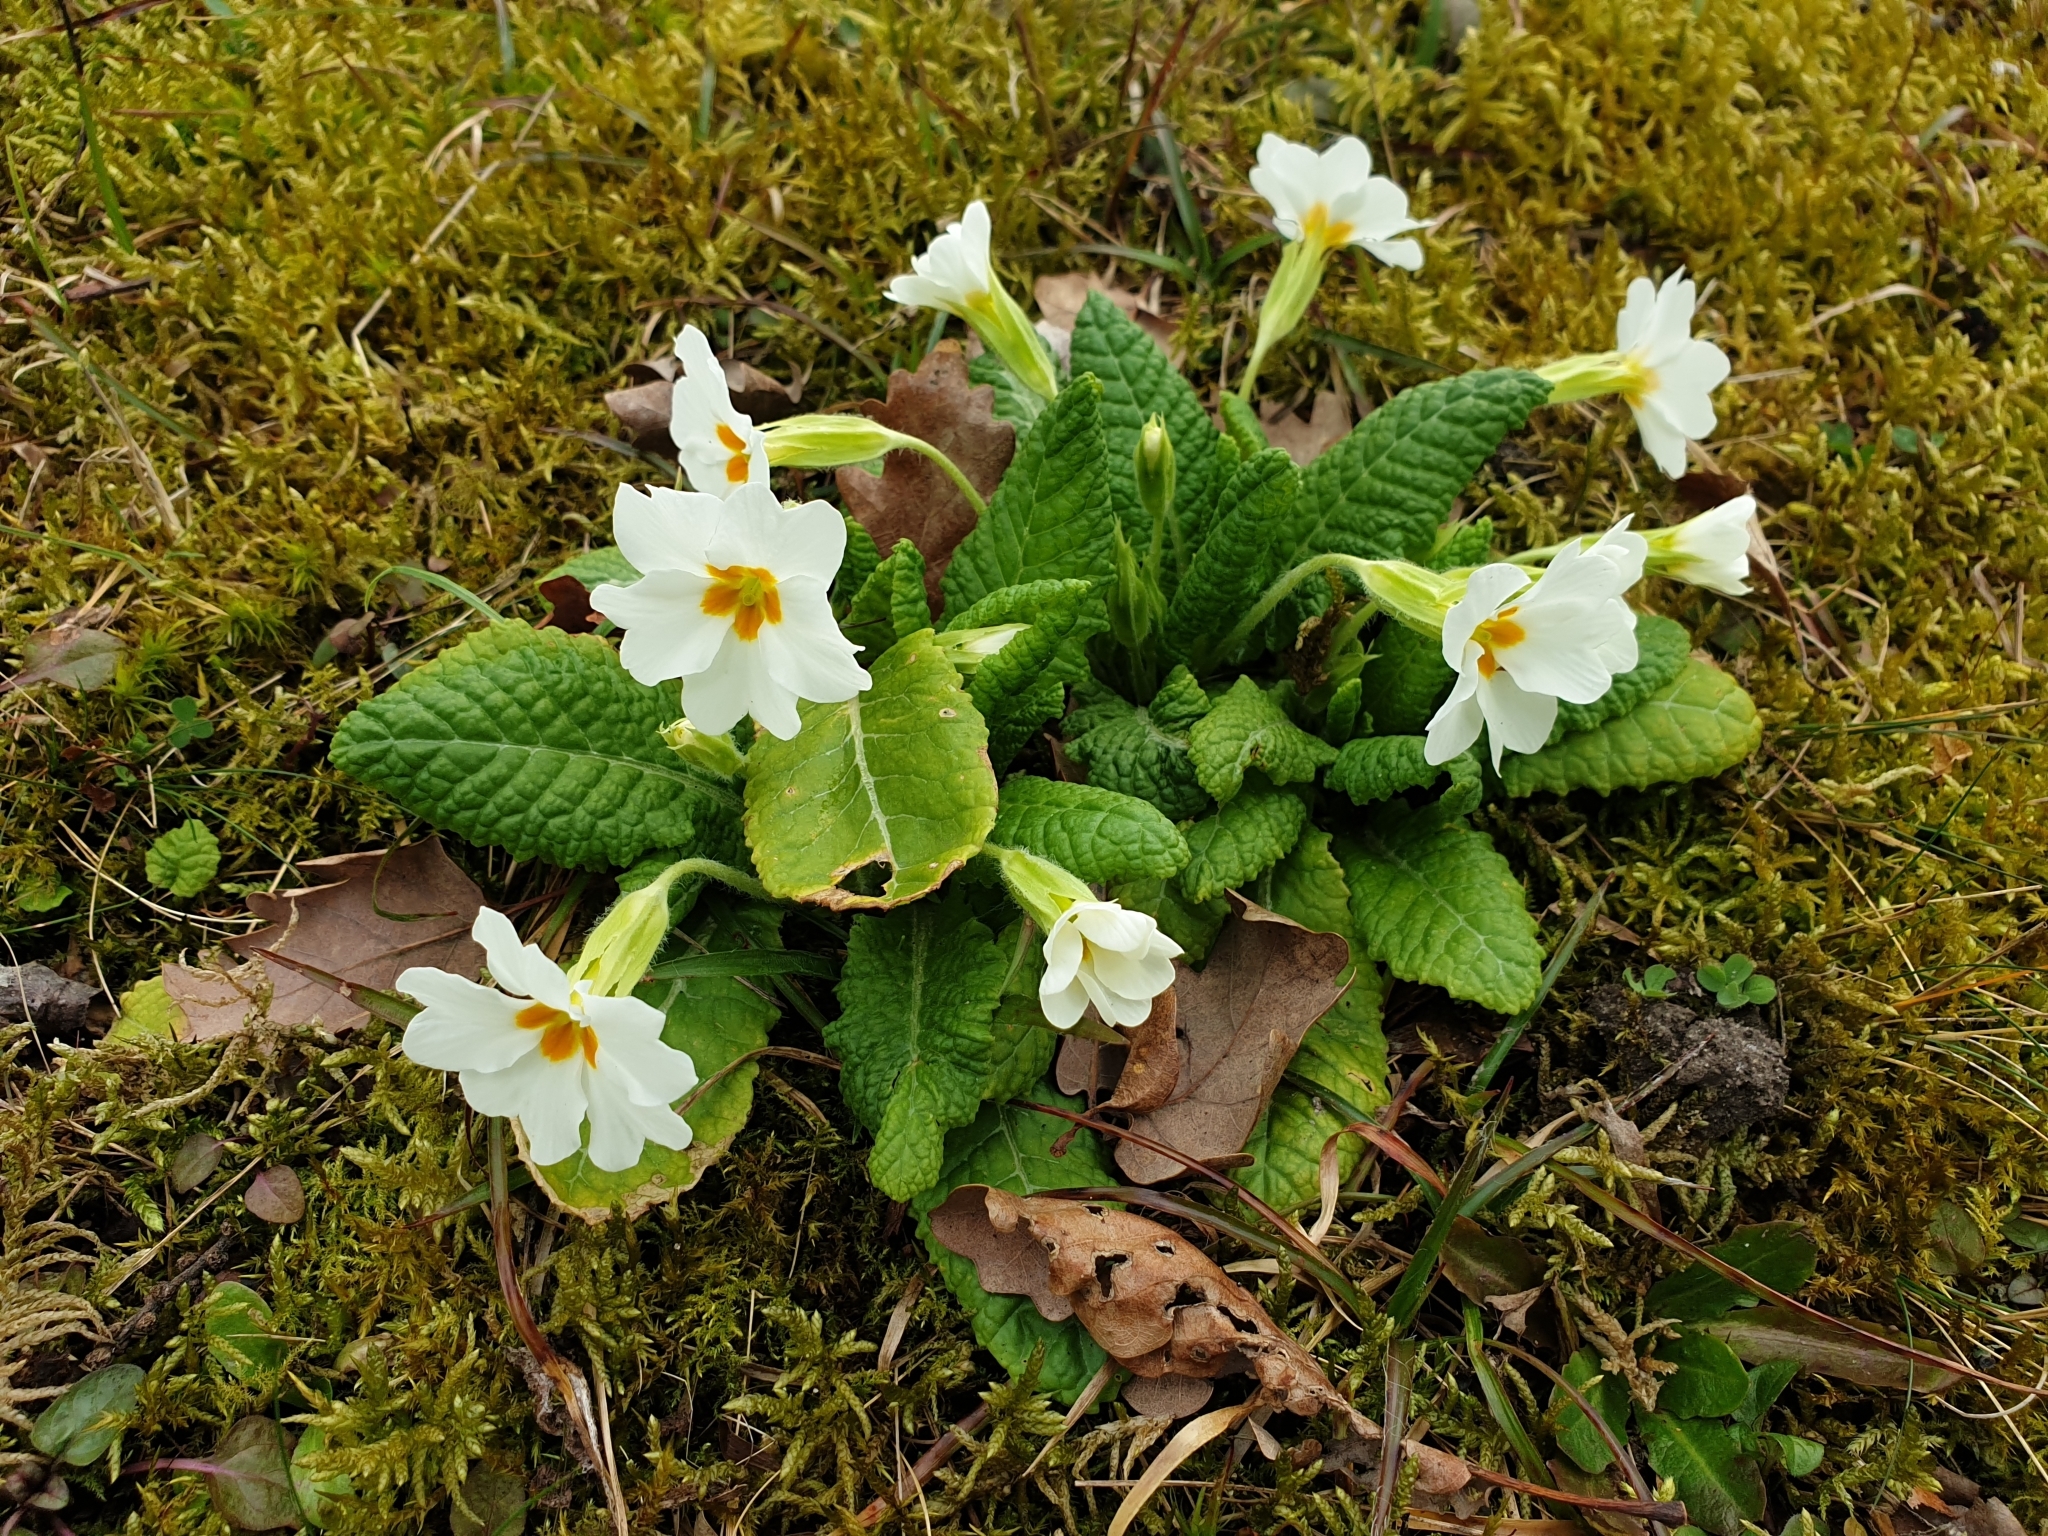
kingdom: Plantae
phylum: Tracheophyta
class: Magnoliopsida
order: Ericales
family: Primulaceae
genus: Primula
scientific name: Primula vulgaris
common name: Primrose
